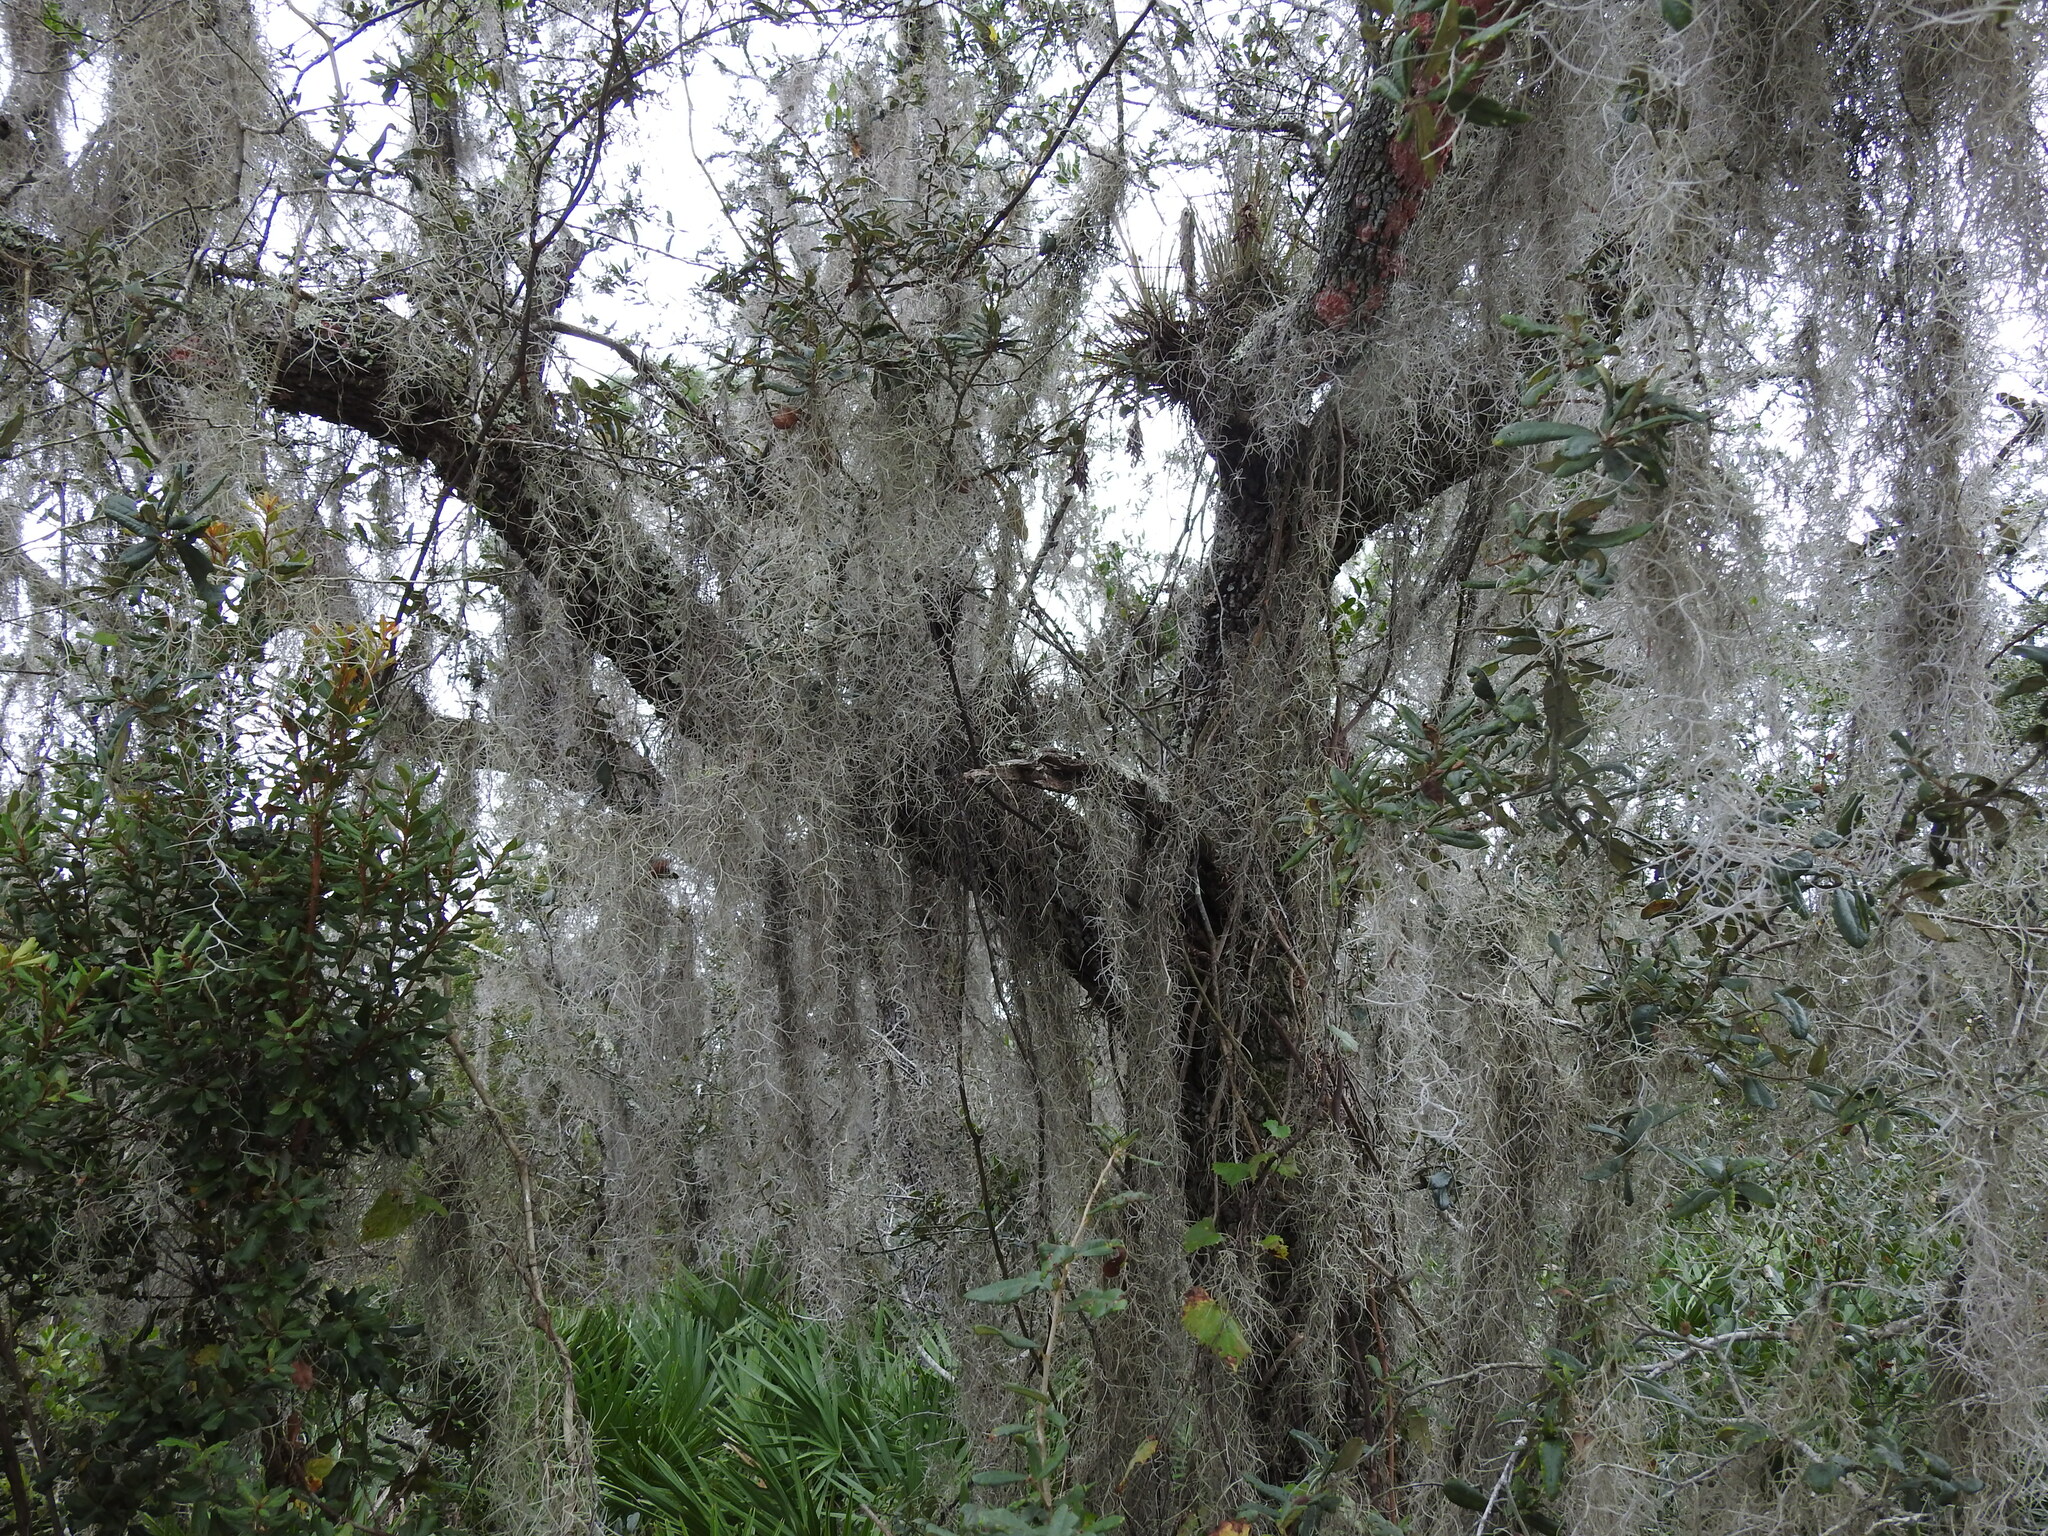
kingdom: Plantae
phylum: Tracheophyta
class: Liliopsida
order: Poales
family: Bromeliaceae
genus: Tillandsia
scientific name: Tillandsia usneoides
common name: Spanish moss
